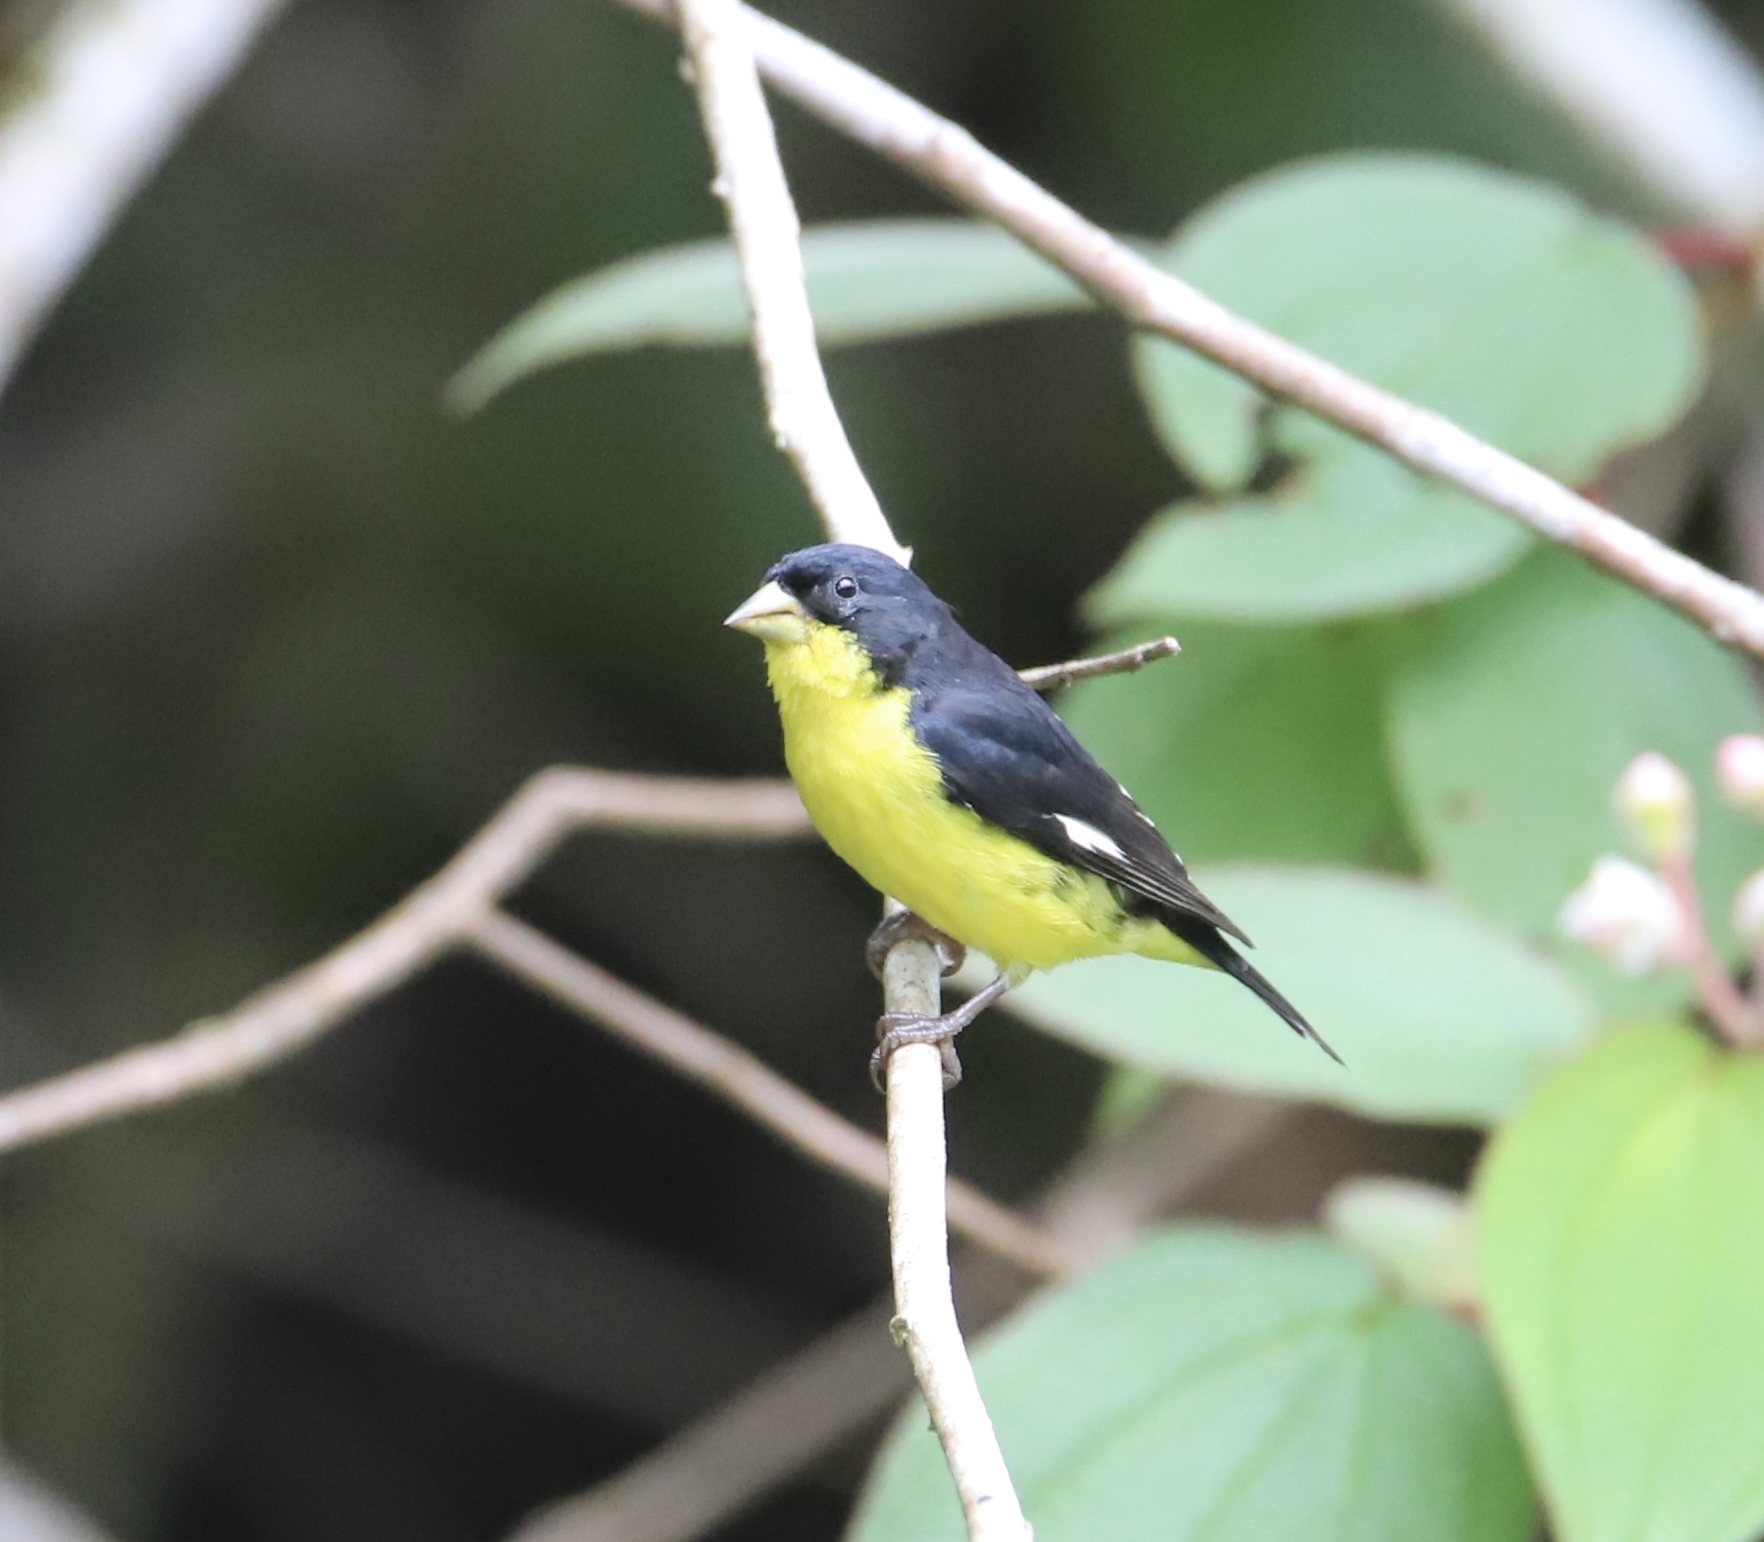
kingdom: Animalia
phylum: Chordata
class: Aves
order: Passeriformes
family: Fringillidae
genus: Spinus
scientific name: Spinus psaltria
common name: Lesser goldfinch
